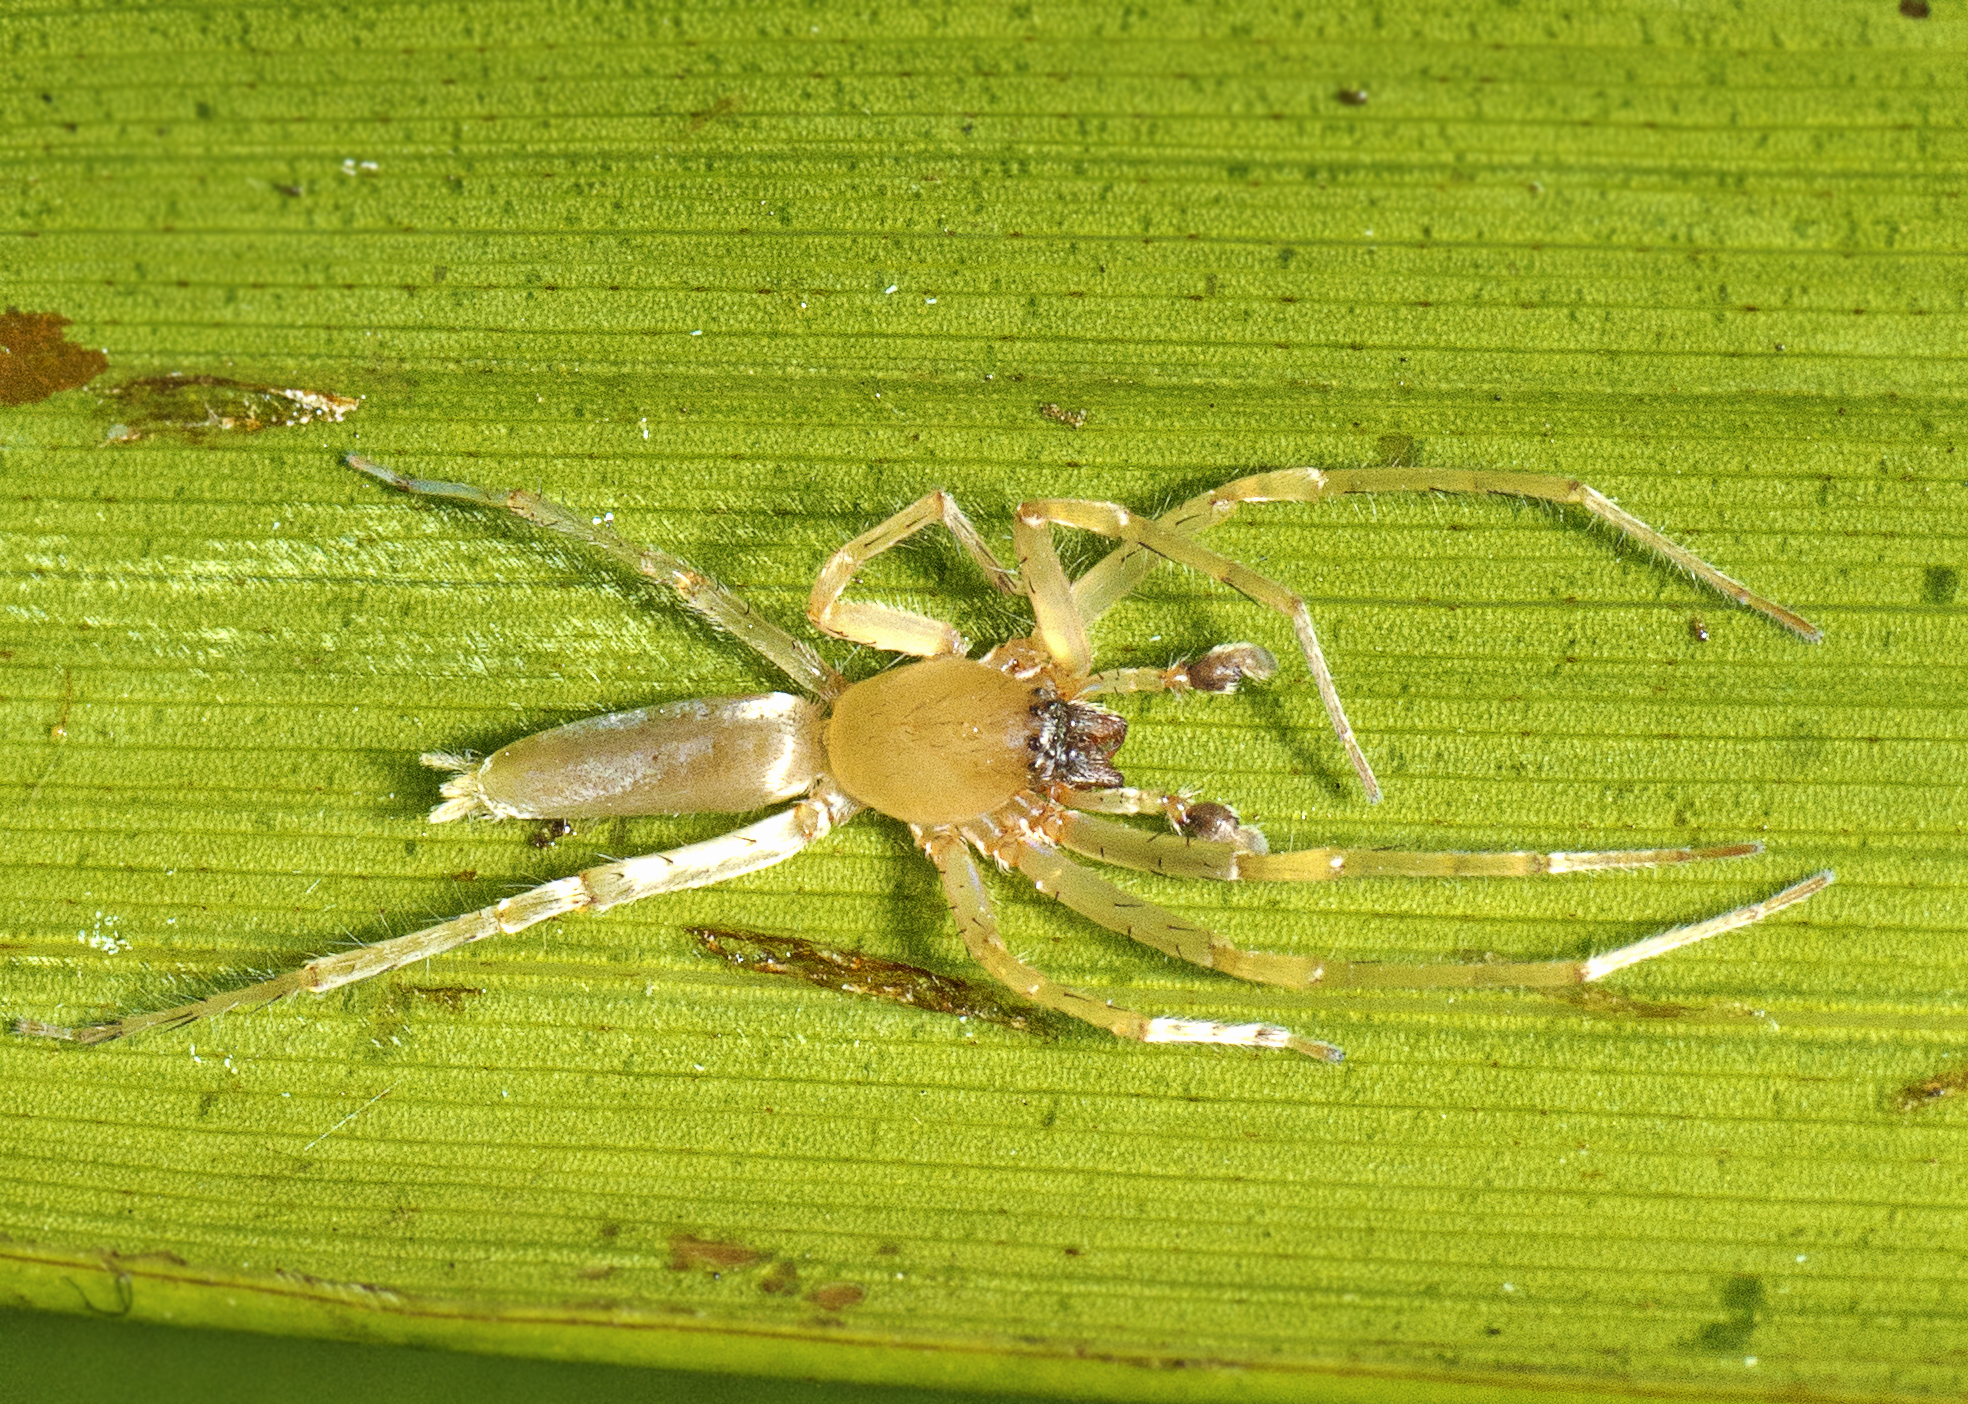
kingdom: Animalia
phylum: Arthropoda
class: Arachnida
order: Araneae
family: Clubionidae
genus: Clubiona
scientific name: Clubiona modesta
